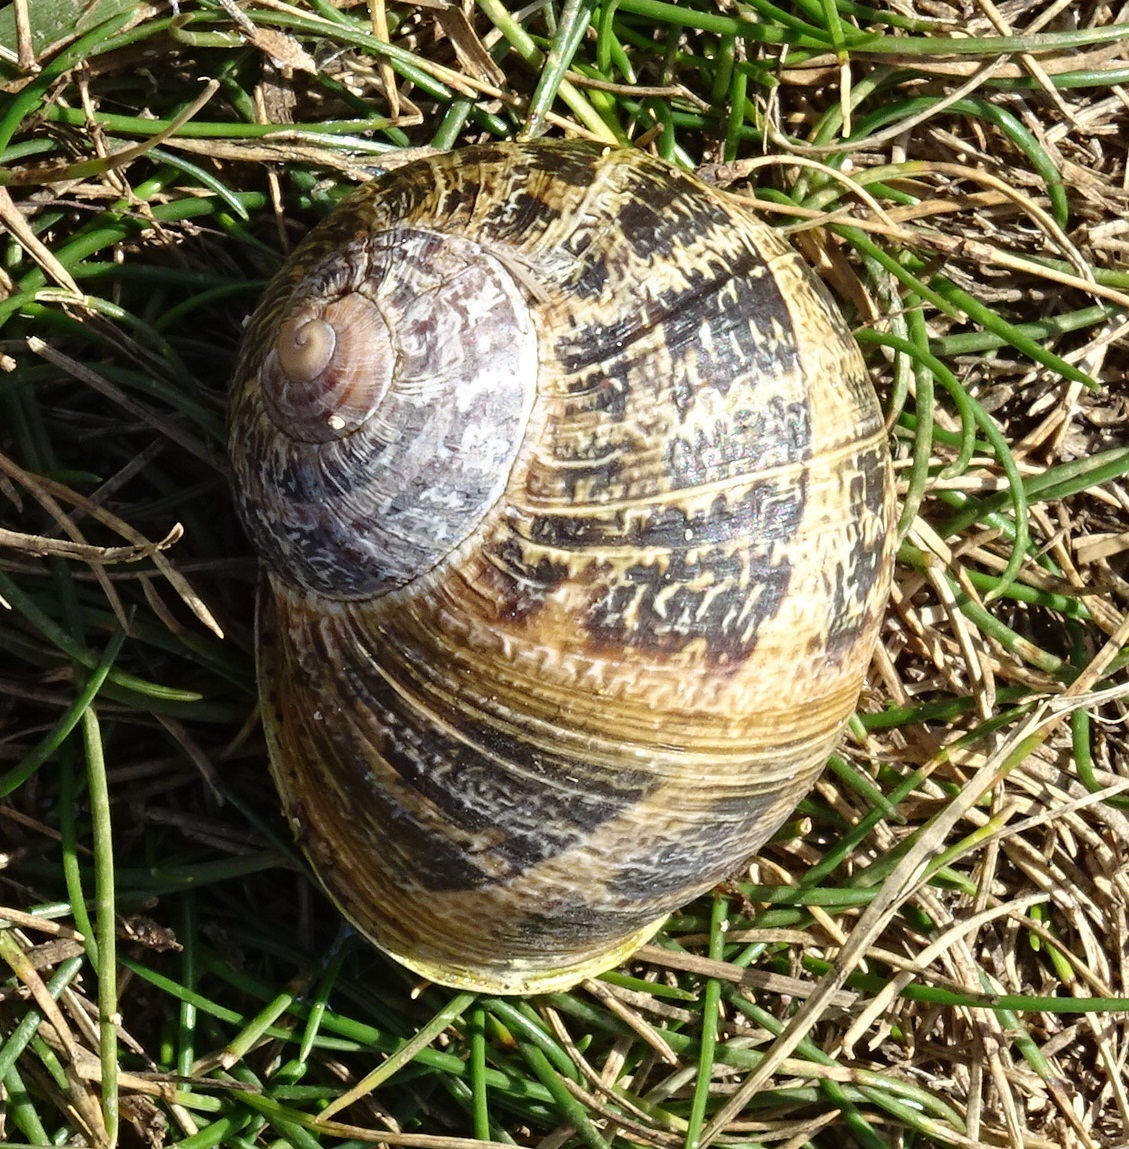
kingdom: Animalia
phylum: Mollusca
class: Gastropoda
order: Stylommatophora
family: Helicidae
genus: Cornu
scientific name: Cornu aspersum
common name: Brown garden snail
